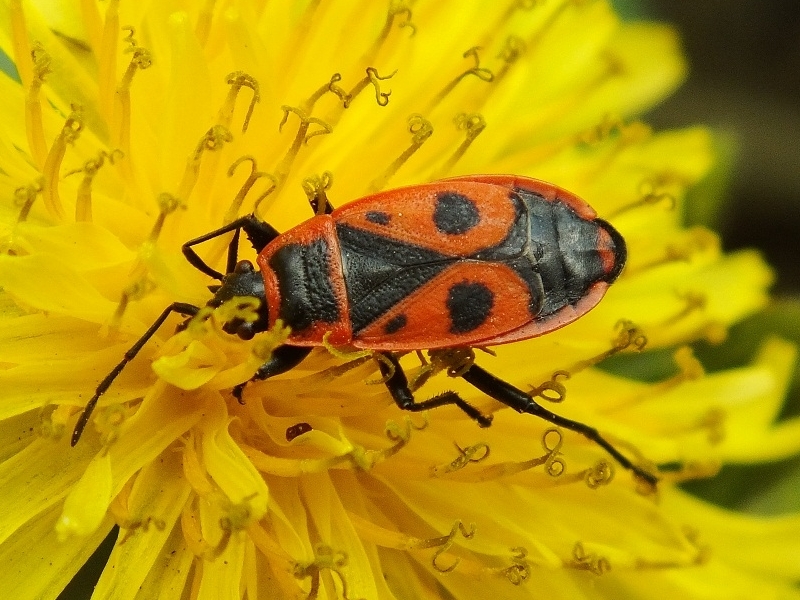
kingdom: Animalia
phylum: Arthropoda
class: Insecta
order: Hemiptera
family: Pyrrhocoridae
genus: Pyrrhocoris
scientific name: Pyrrhocoris apterus
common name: Firebug
